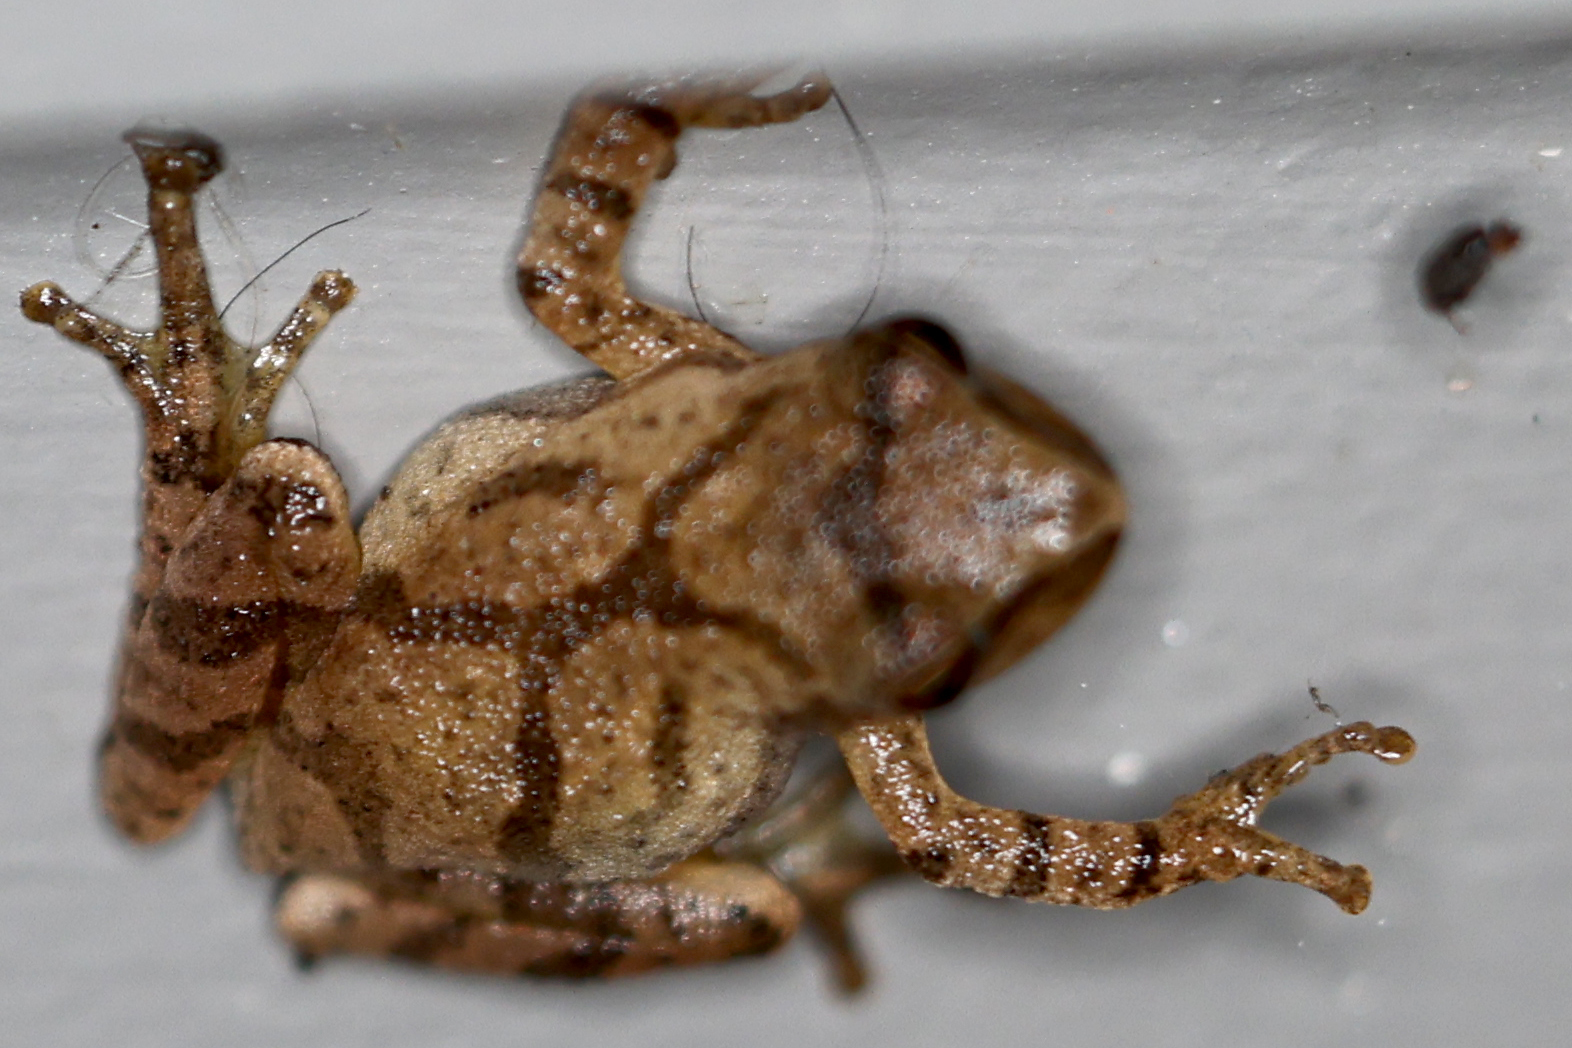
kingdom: Animalia
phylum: Chordata
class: Amphibia
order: Anura
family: Hylidae
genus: Pseudacris
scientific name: Pseudacris crucifer
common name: Spring peeper
